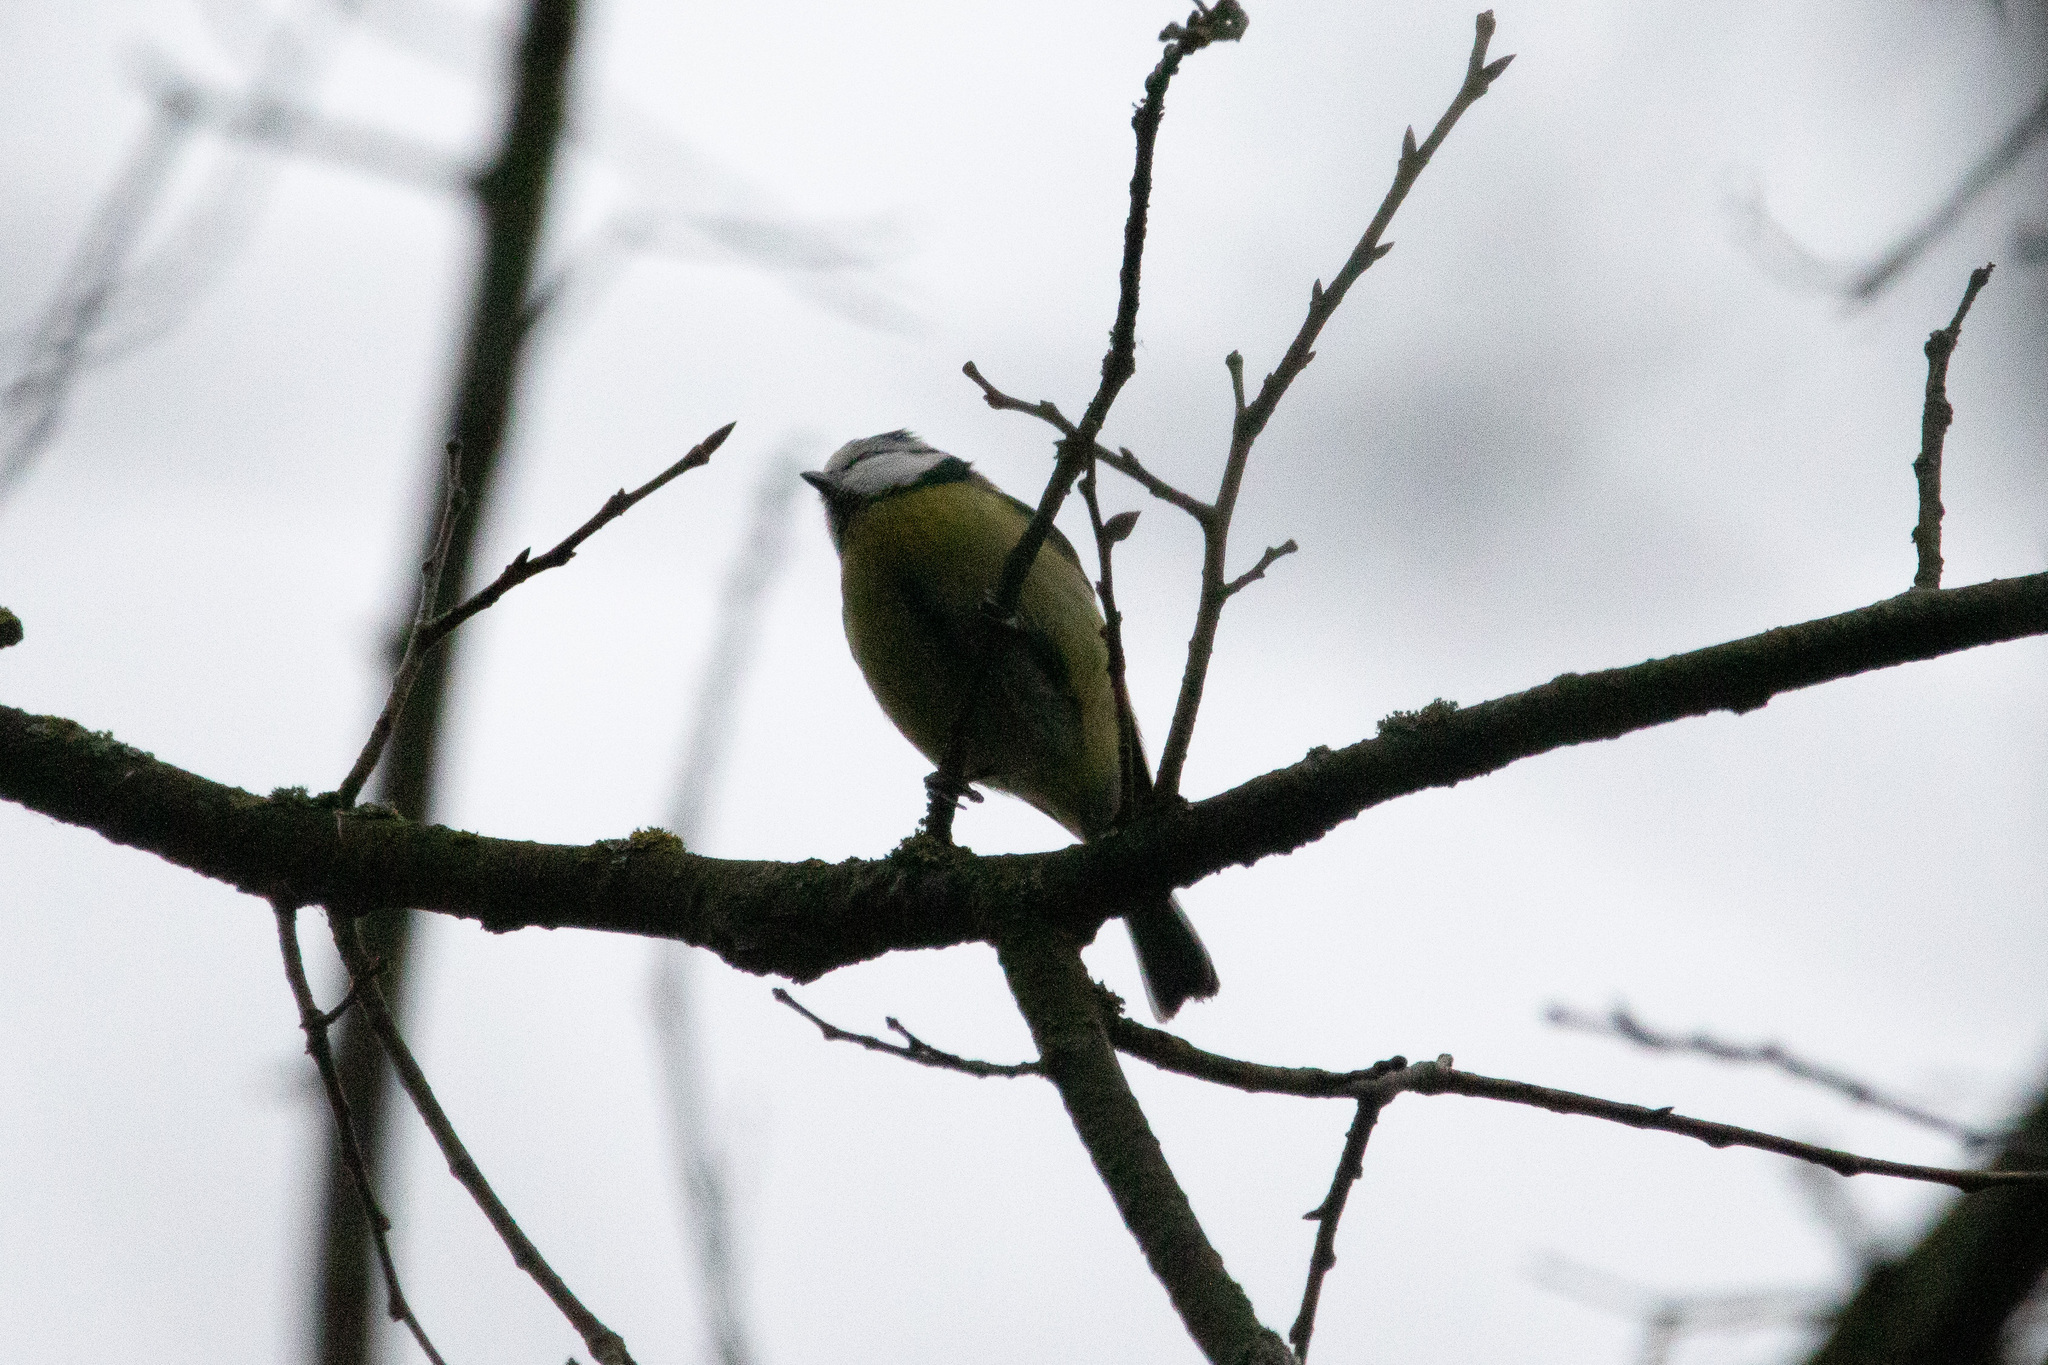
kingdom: Animalia
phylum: Chordata
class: Aves
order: Passeriformes
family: Paridae
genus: Cyanistes
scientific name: Cyanistes caeruleus
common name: Eurasian blue tit
